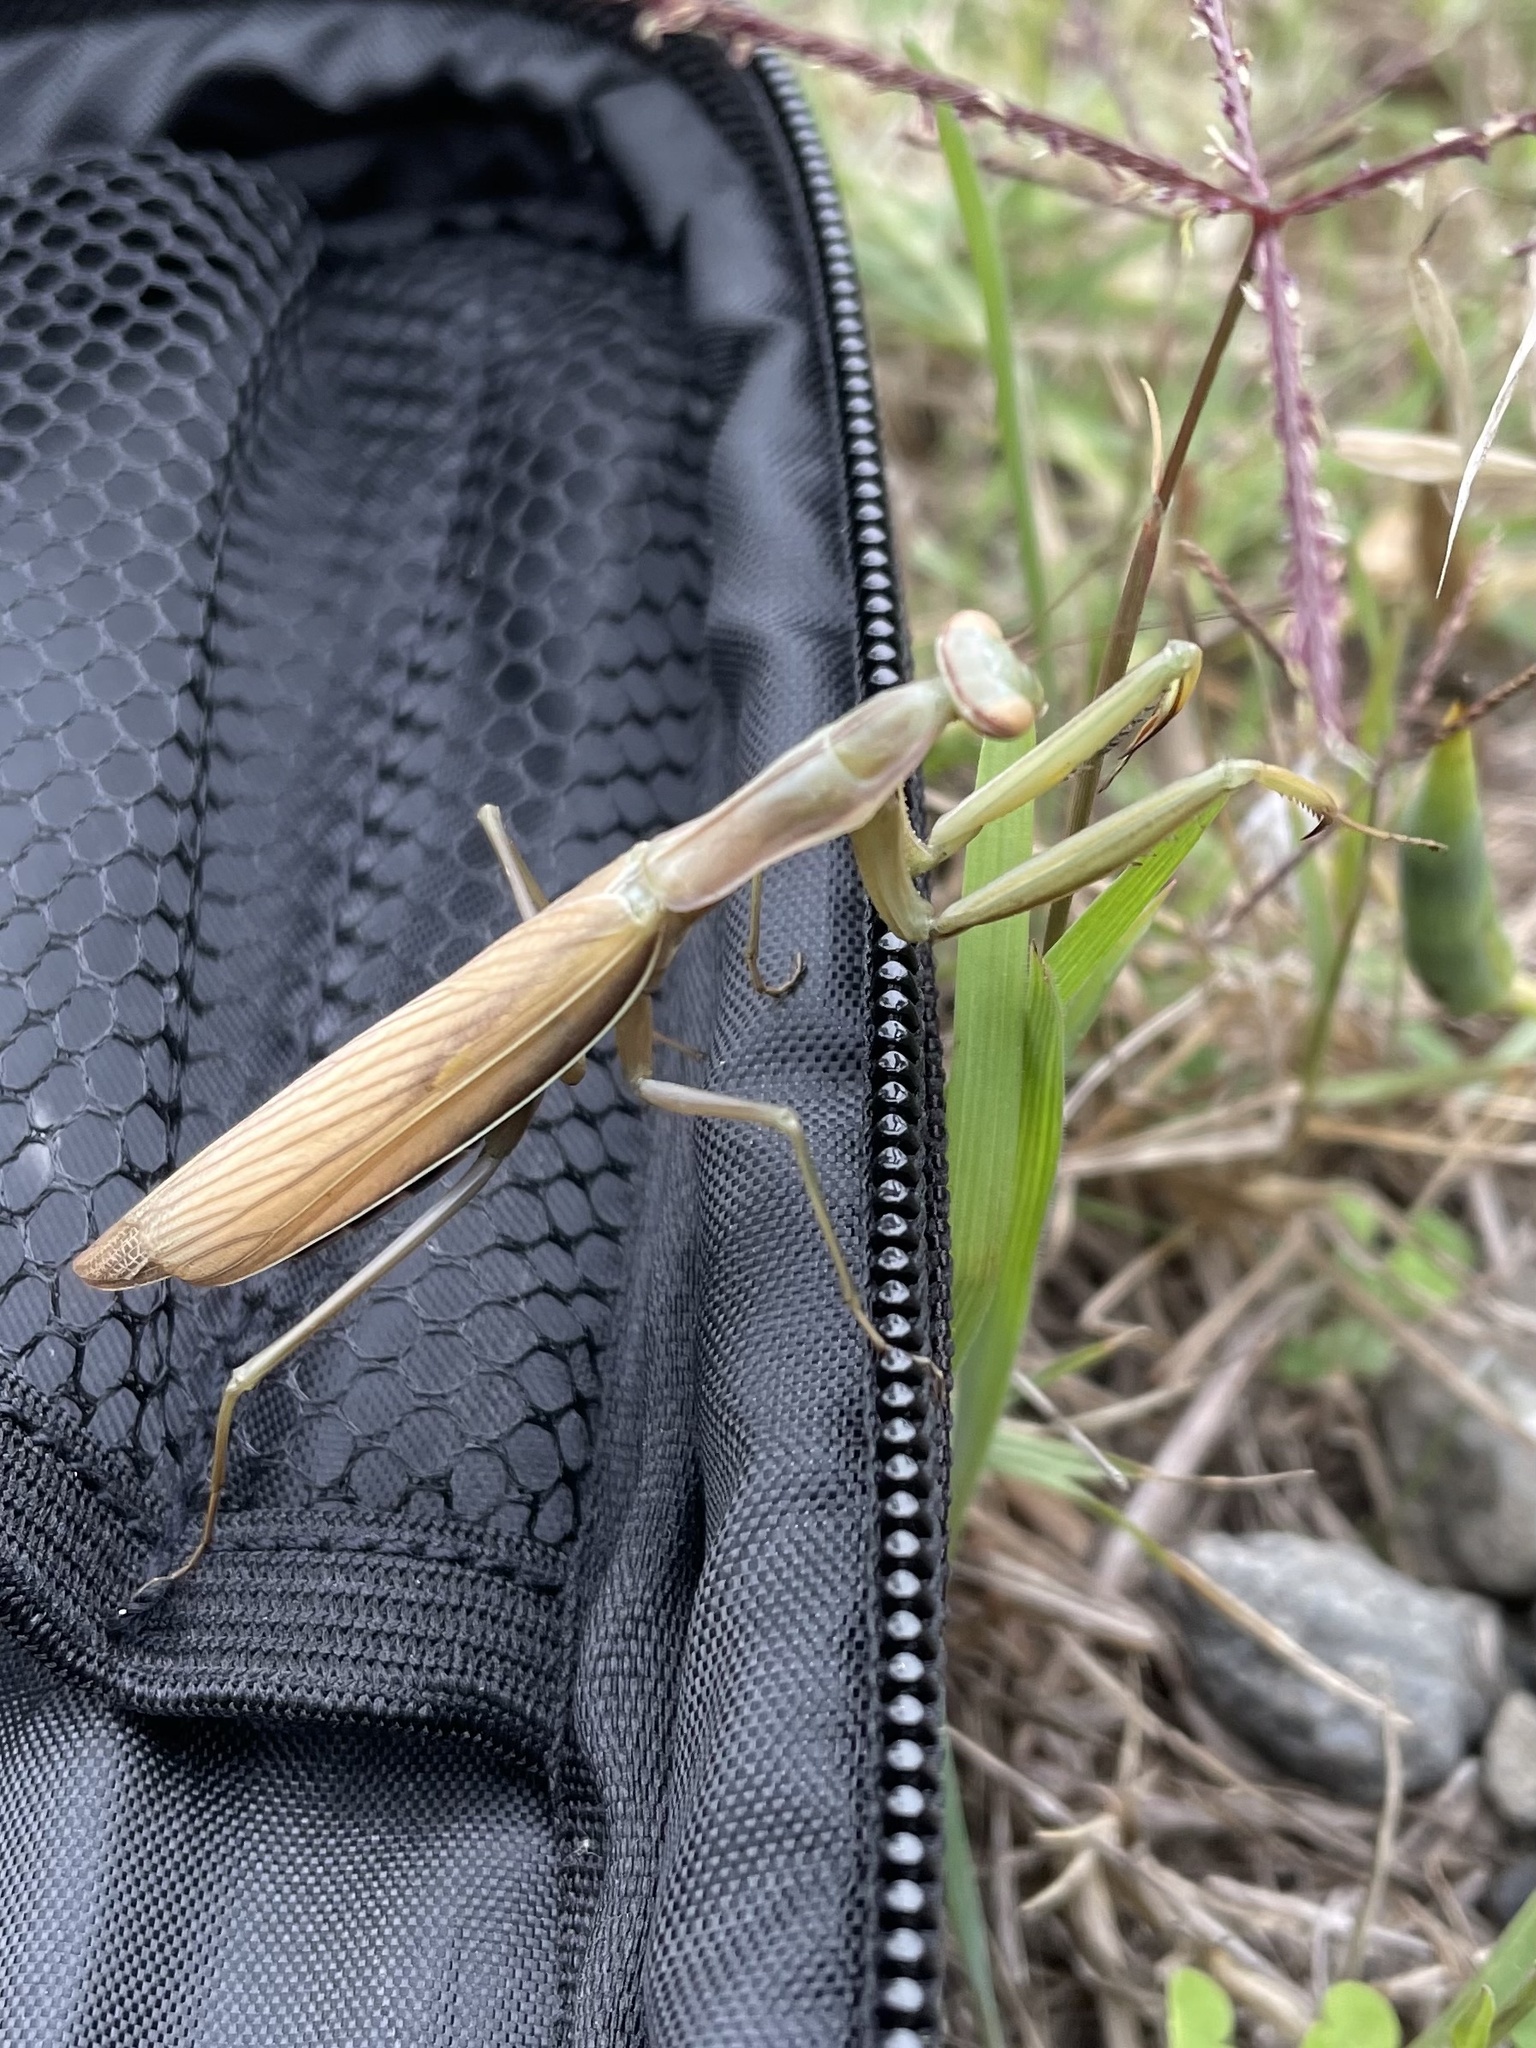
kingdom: Animalia
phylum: Arthropoda
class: Insecta
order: Mantodea
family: Mantidae
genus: Mantis
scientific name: Mantis religiosa
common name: Praying mantis
